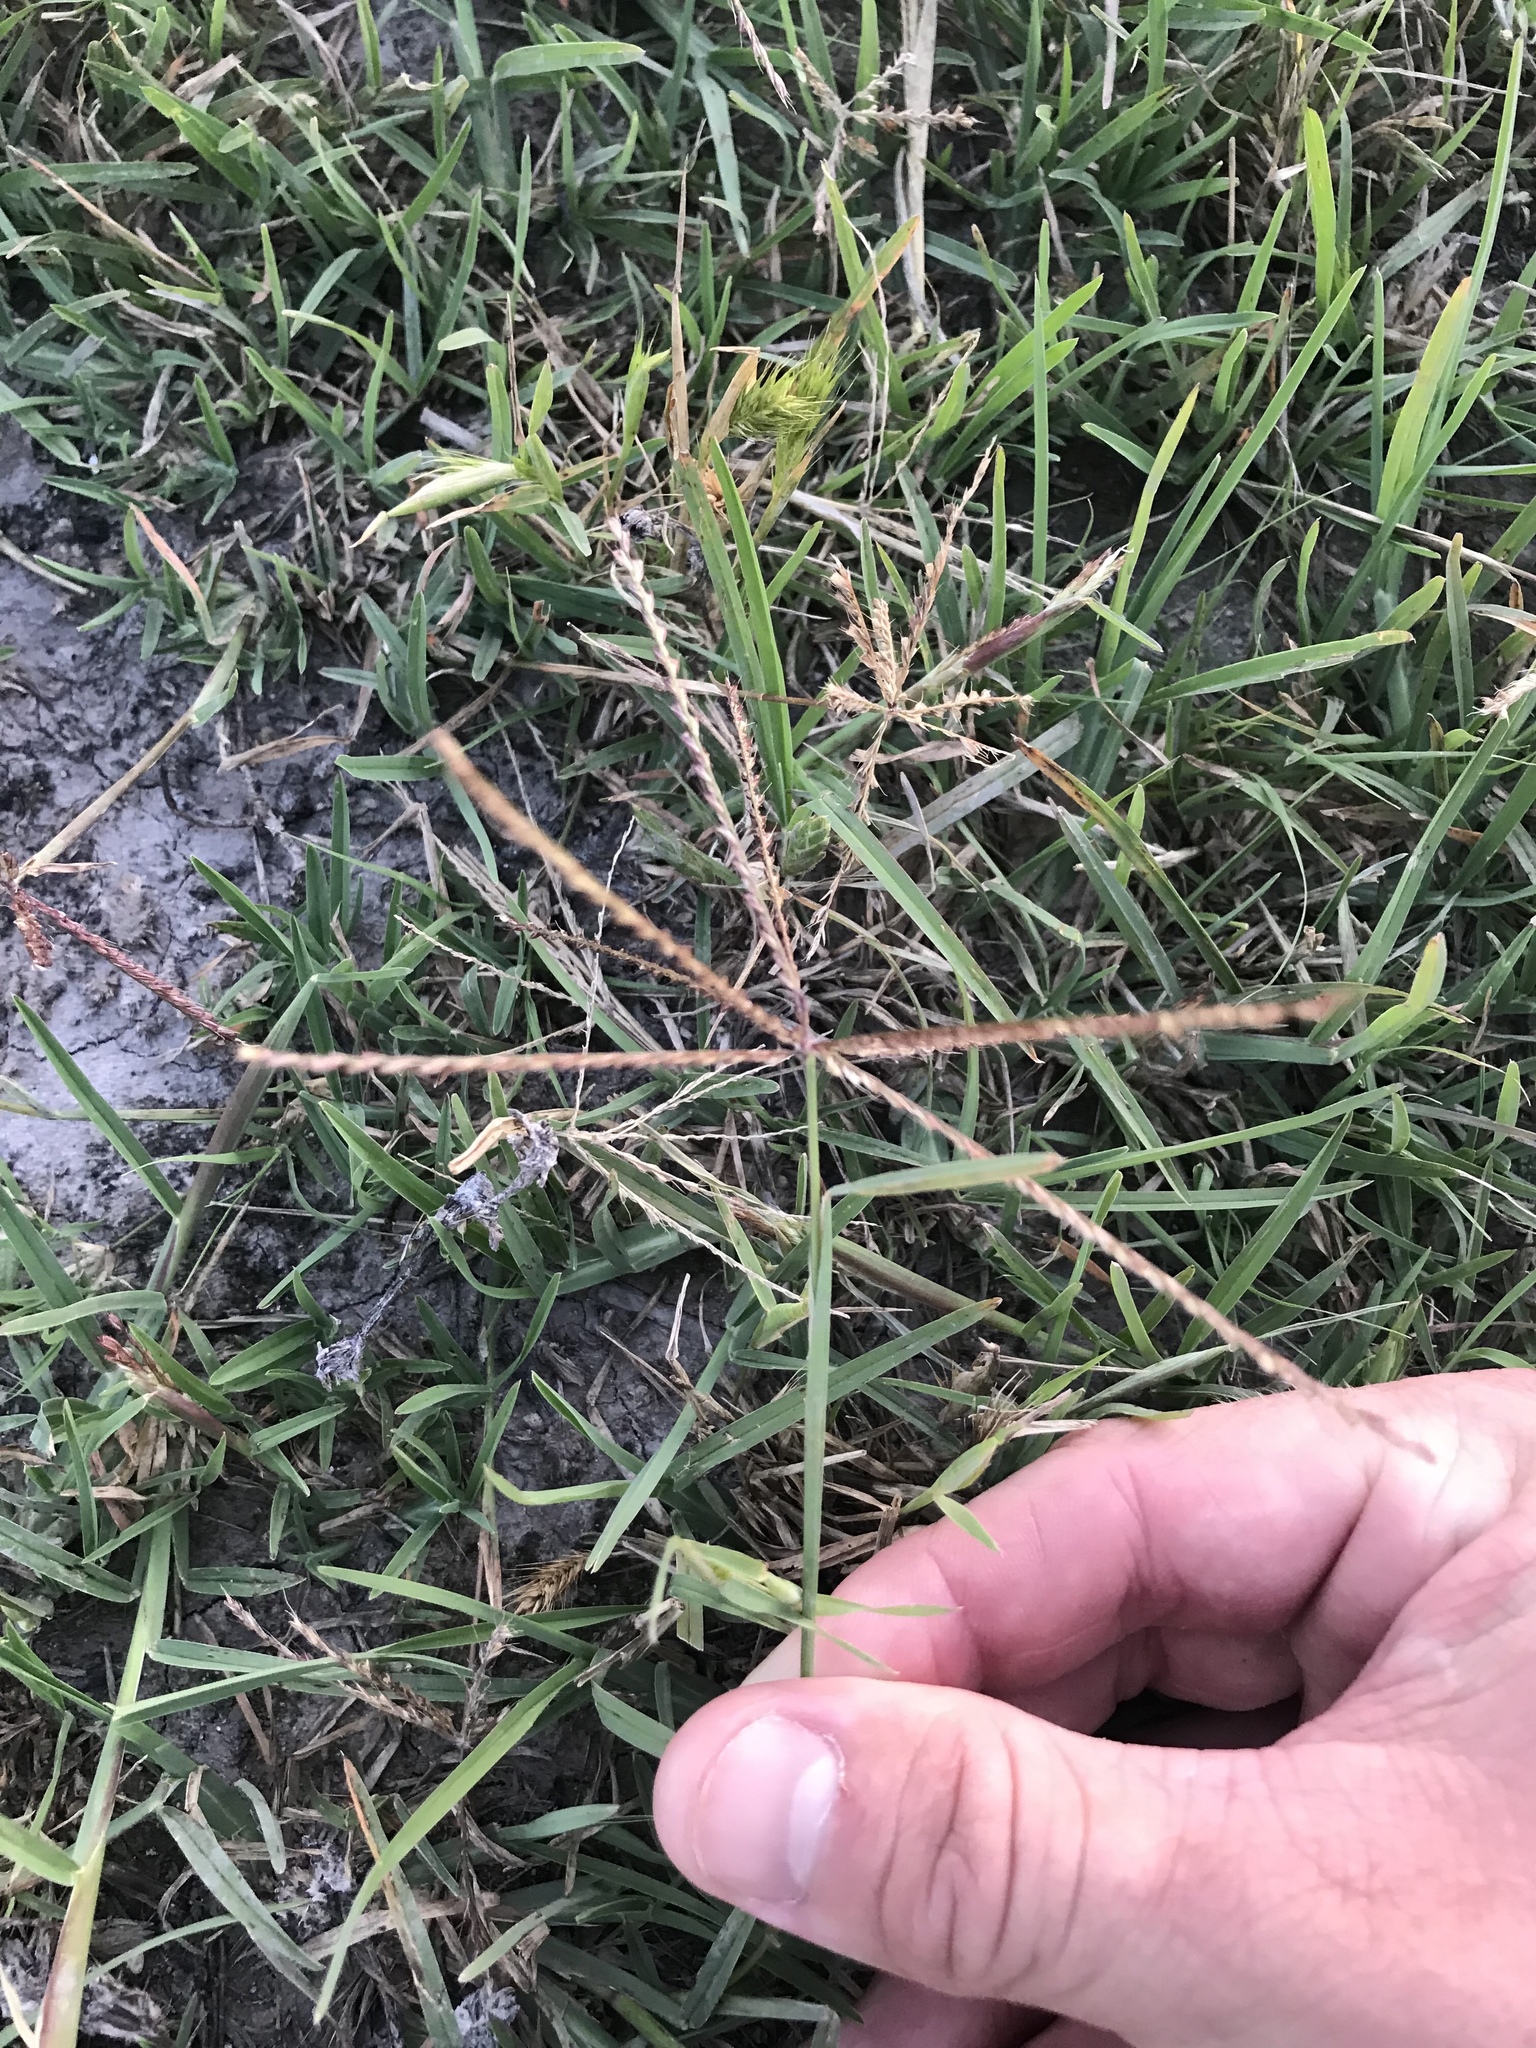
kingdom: Plantae
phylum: Tracheophyta
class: Liliopsida
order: Poales
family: Poaceae
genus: Chloris
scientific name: Chloris subdolichostachya
